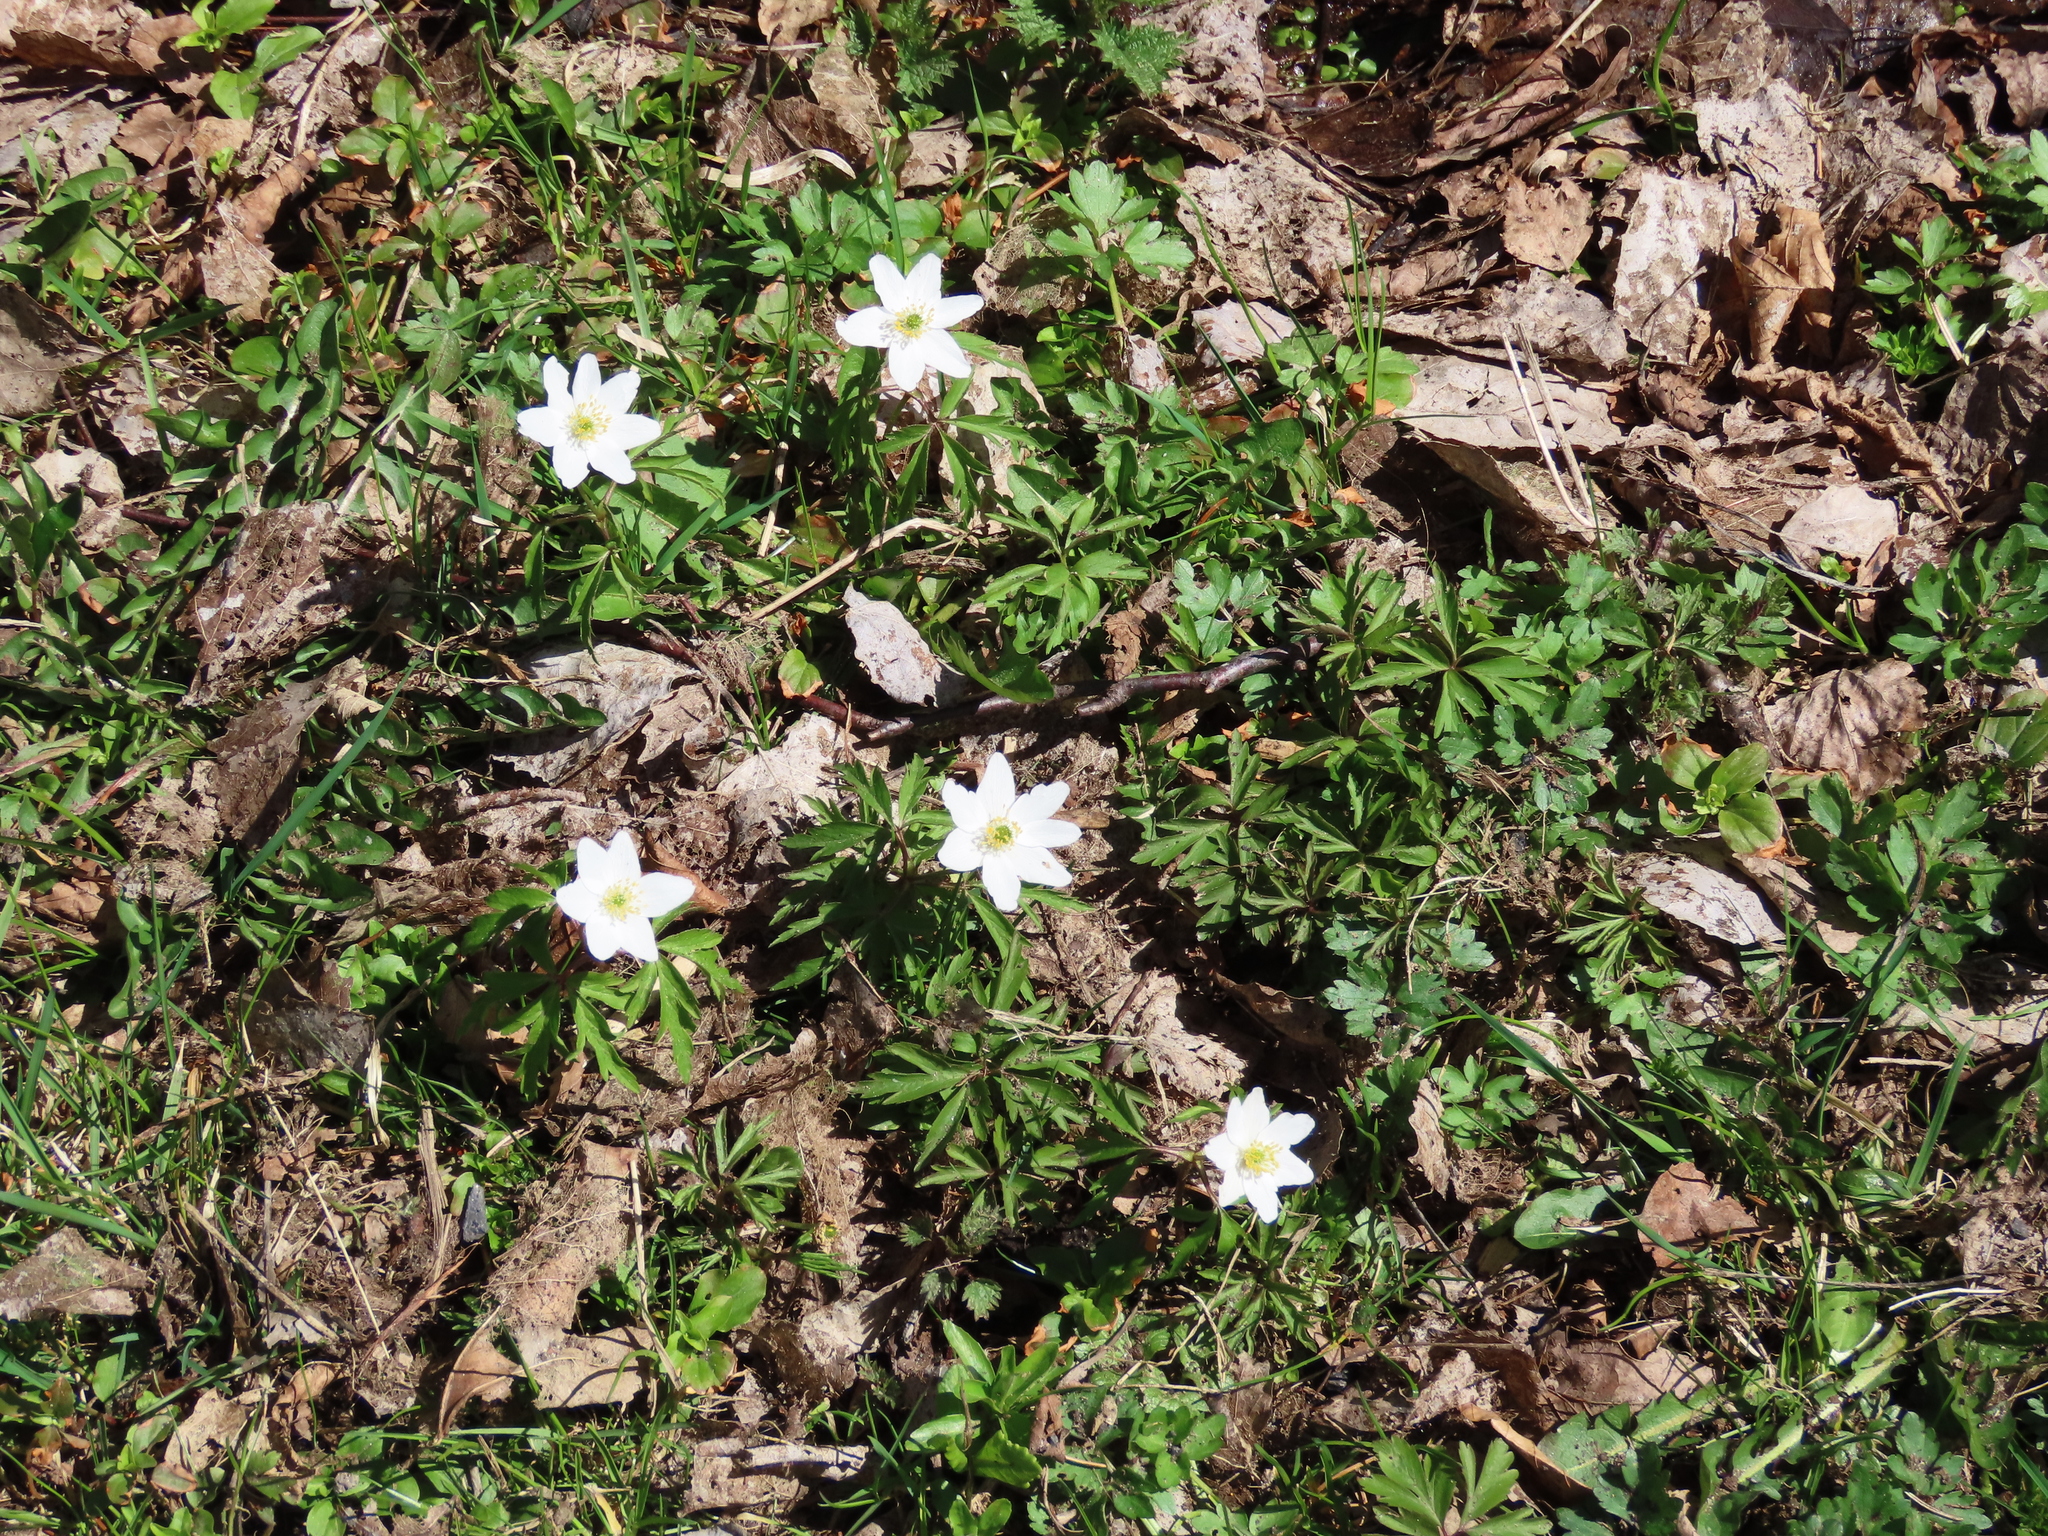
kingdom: Plantae
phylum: Tracheophyta
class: Magnoliopsida
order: Ranunculales
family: Ranunculaceae
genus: Anemone
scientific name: Anemone nemorosa
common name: Wood anemone
